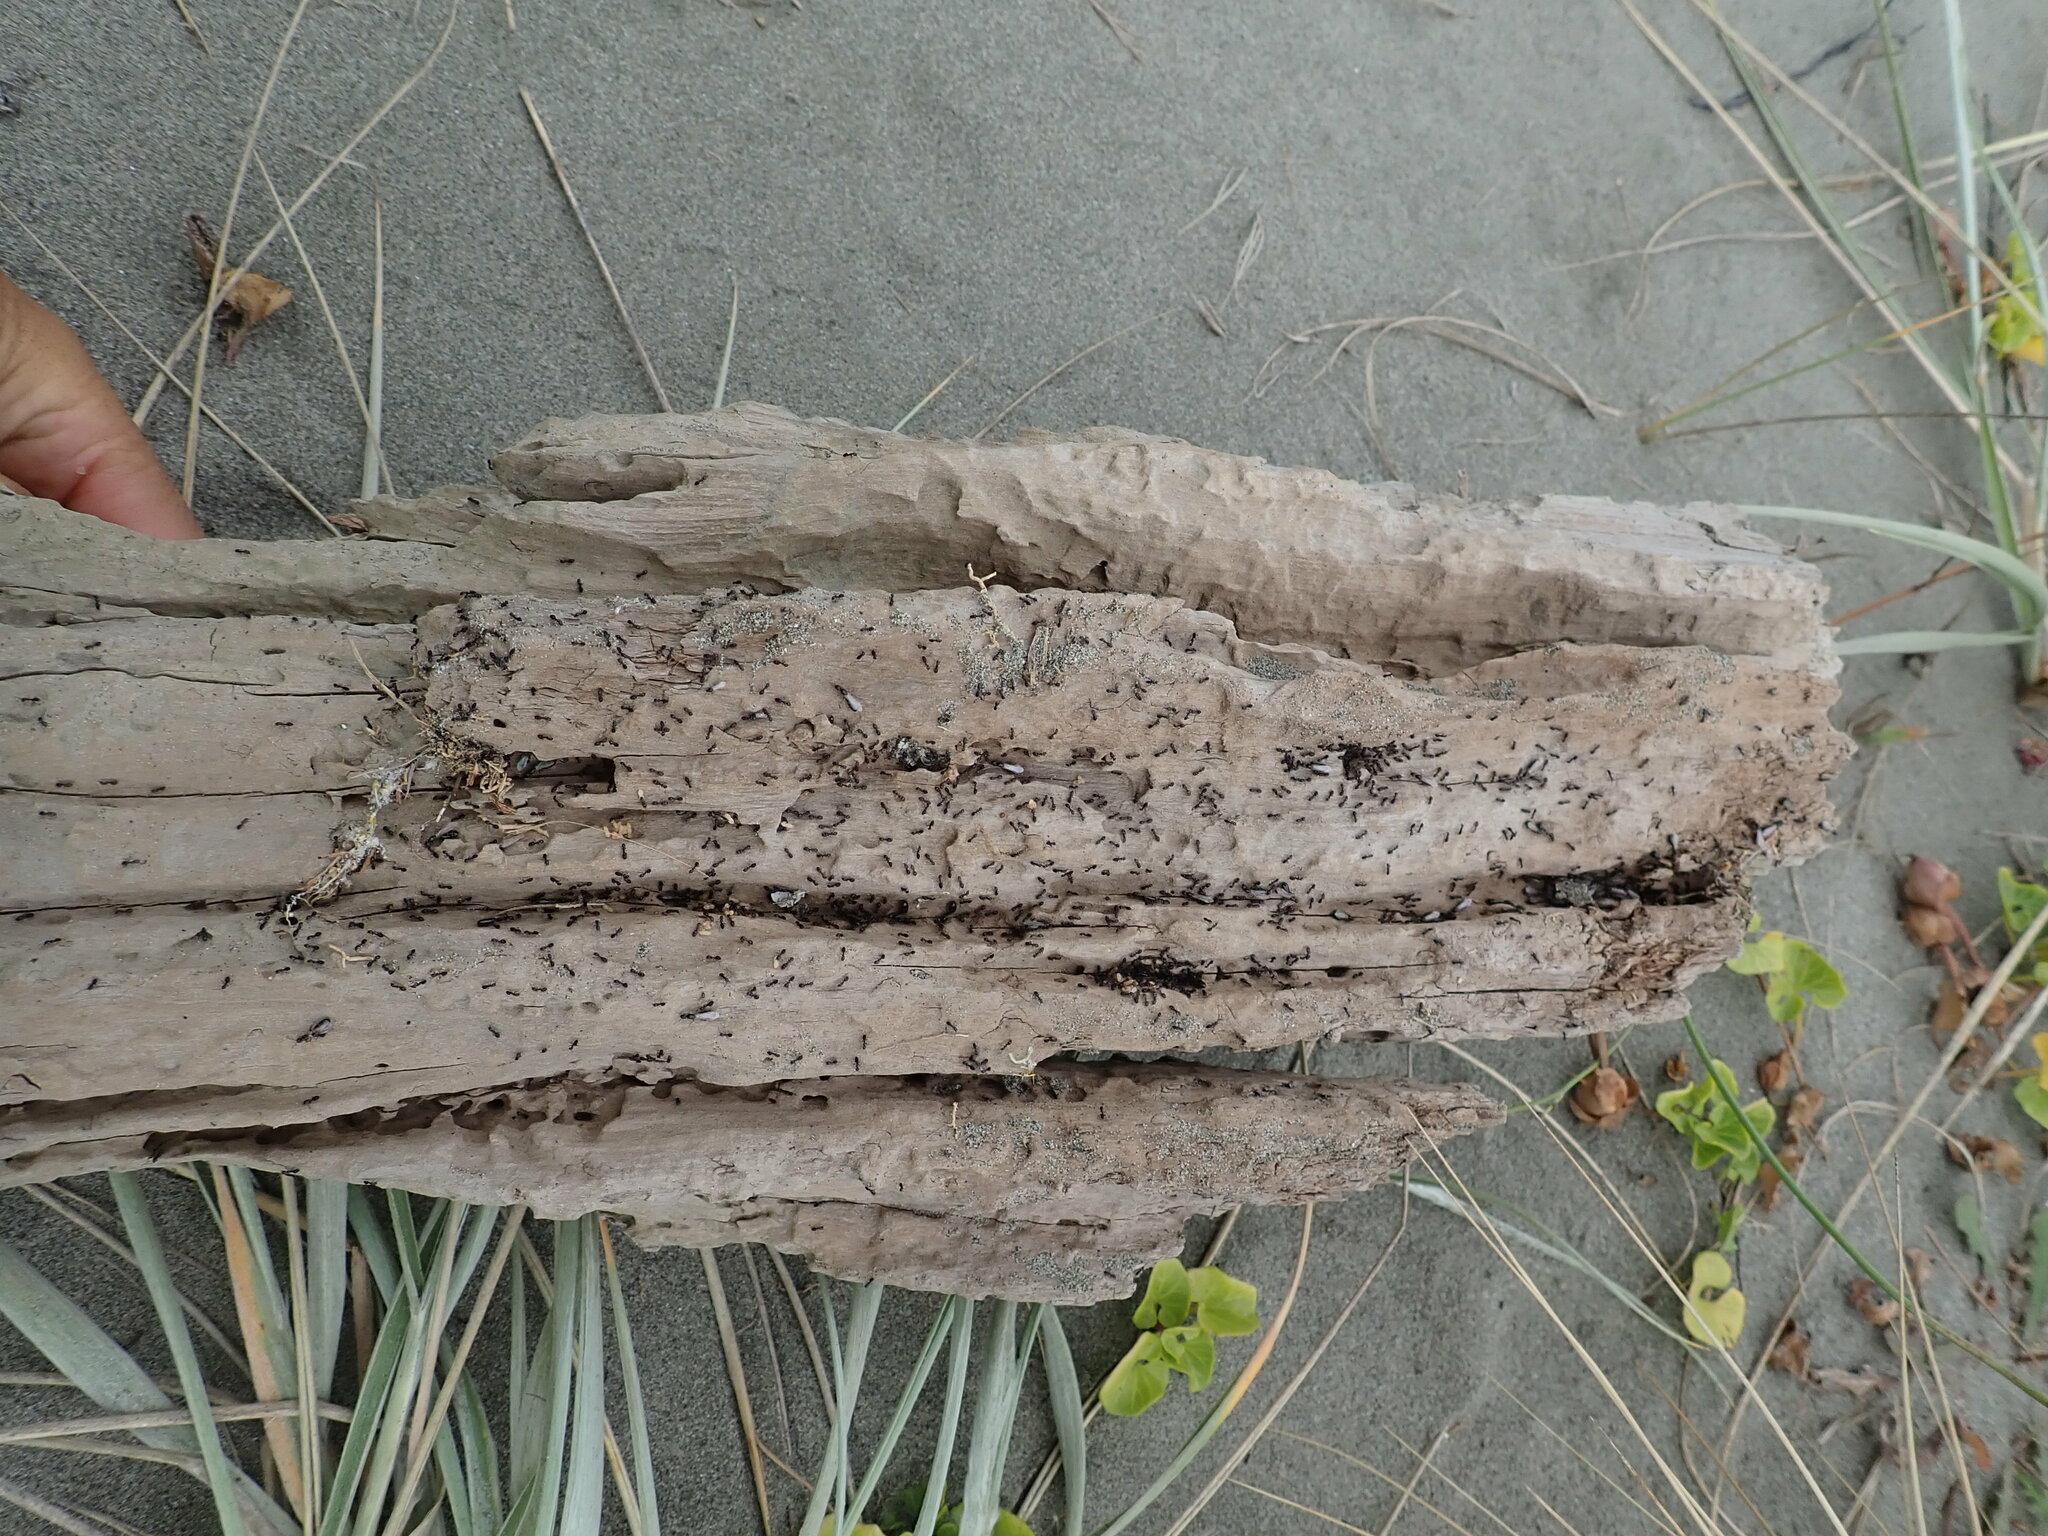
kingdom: Animalia
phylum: Arthropoda
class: Insecta
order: Hymenoptera
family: Formicidae
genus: Ochetellus
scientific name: Ochetellus glaber
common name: Ant
